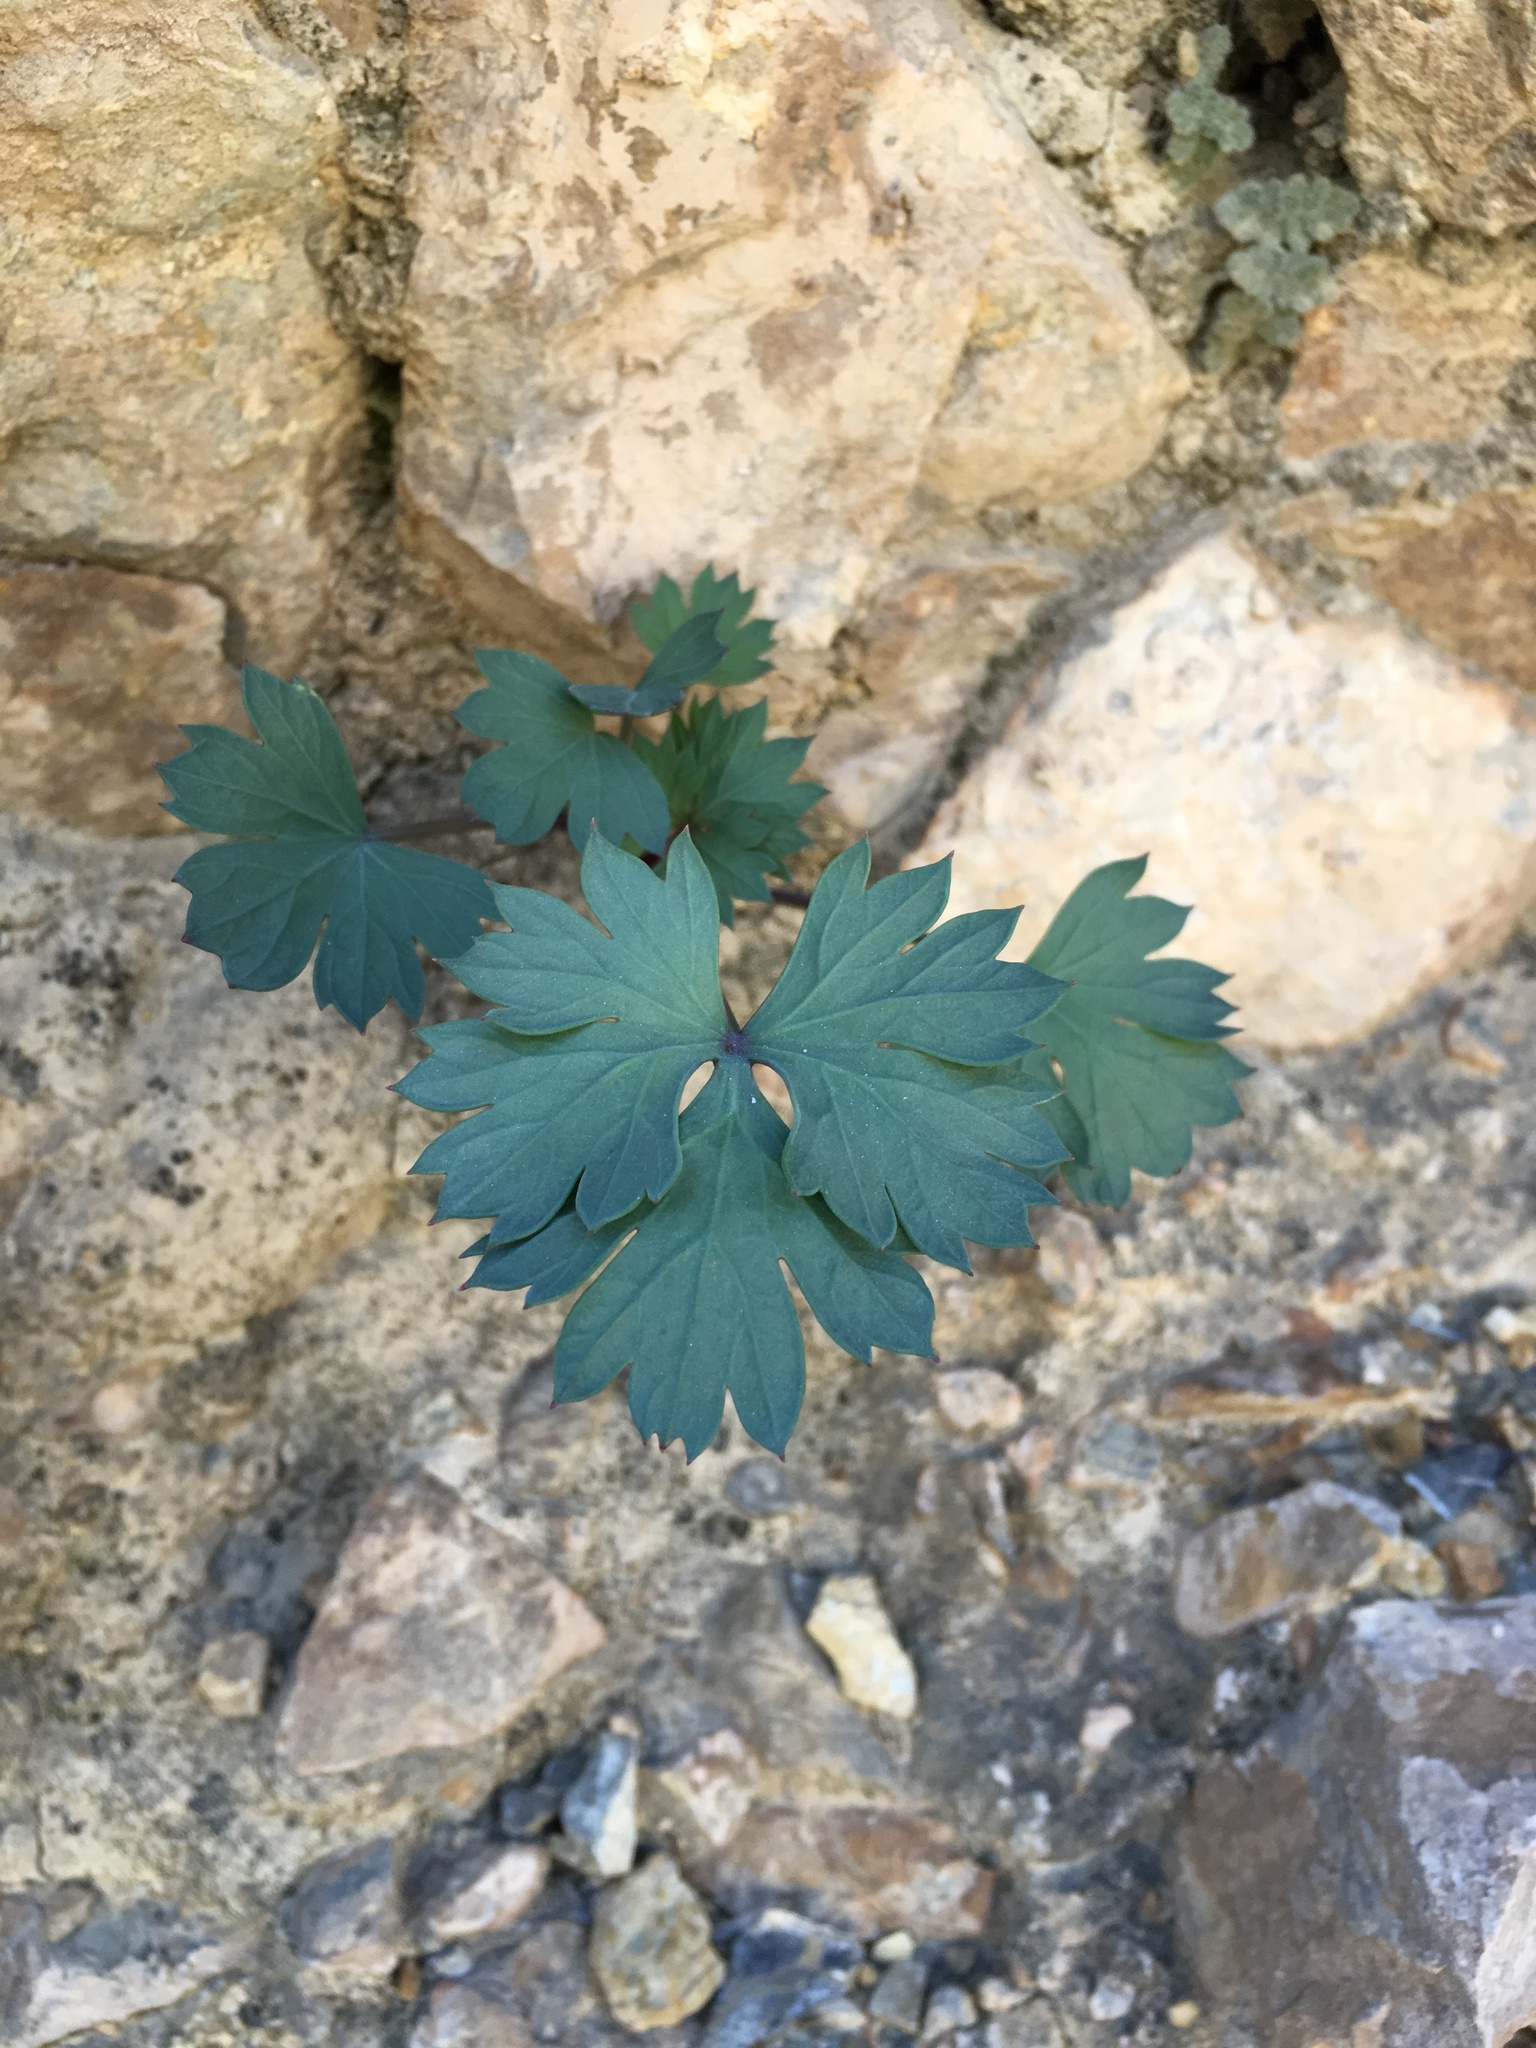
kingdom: Plantae
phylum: Tracheophyta
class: Magnoliopsida
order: Apiales
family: Apiaceae
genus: Cymopterus
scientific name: Cymopterus gilmanii
